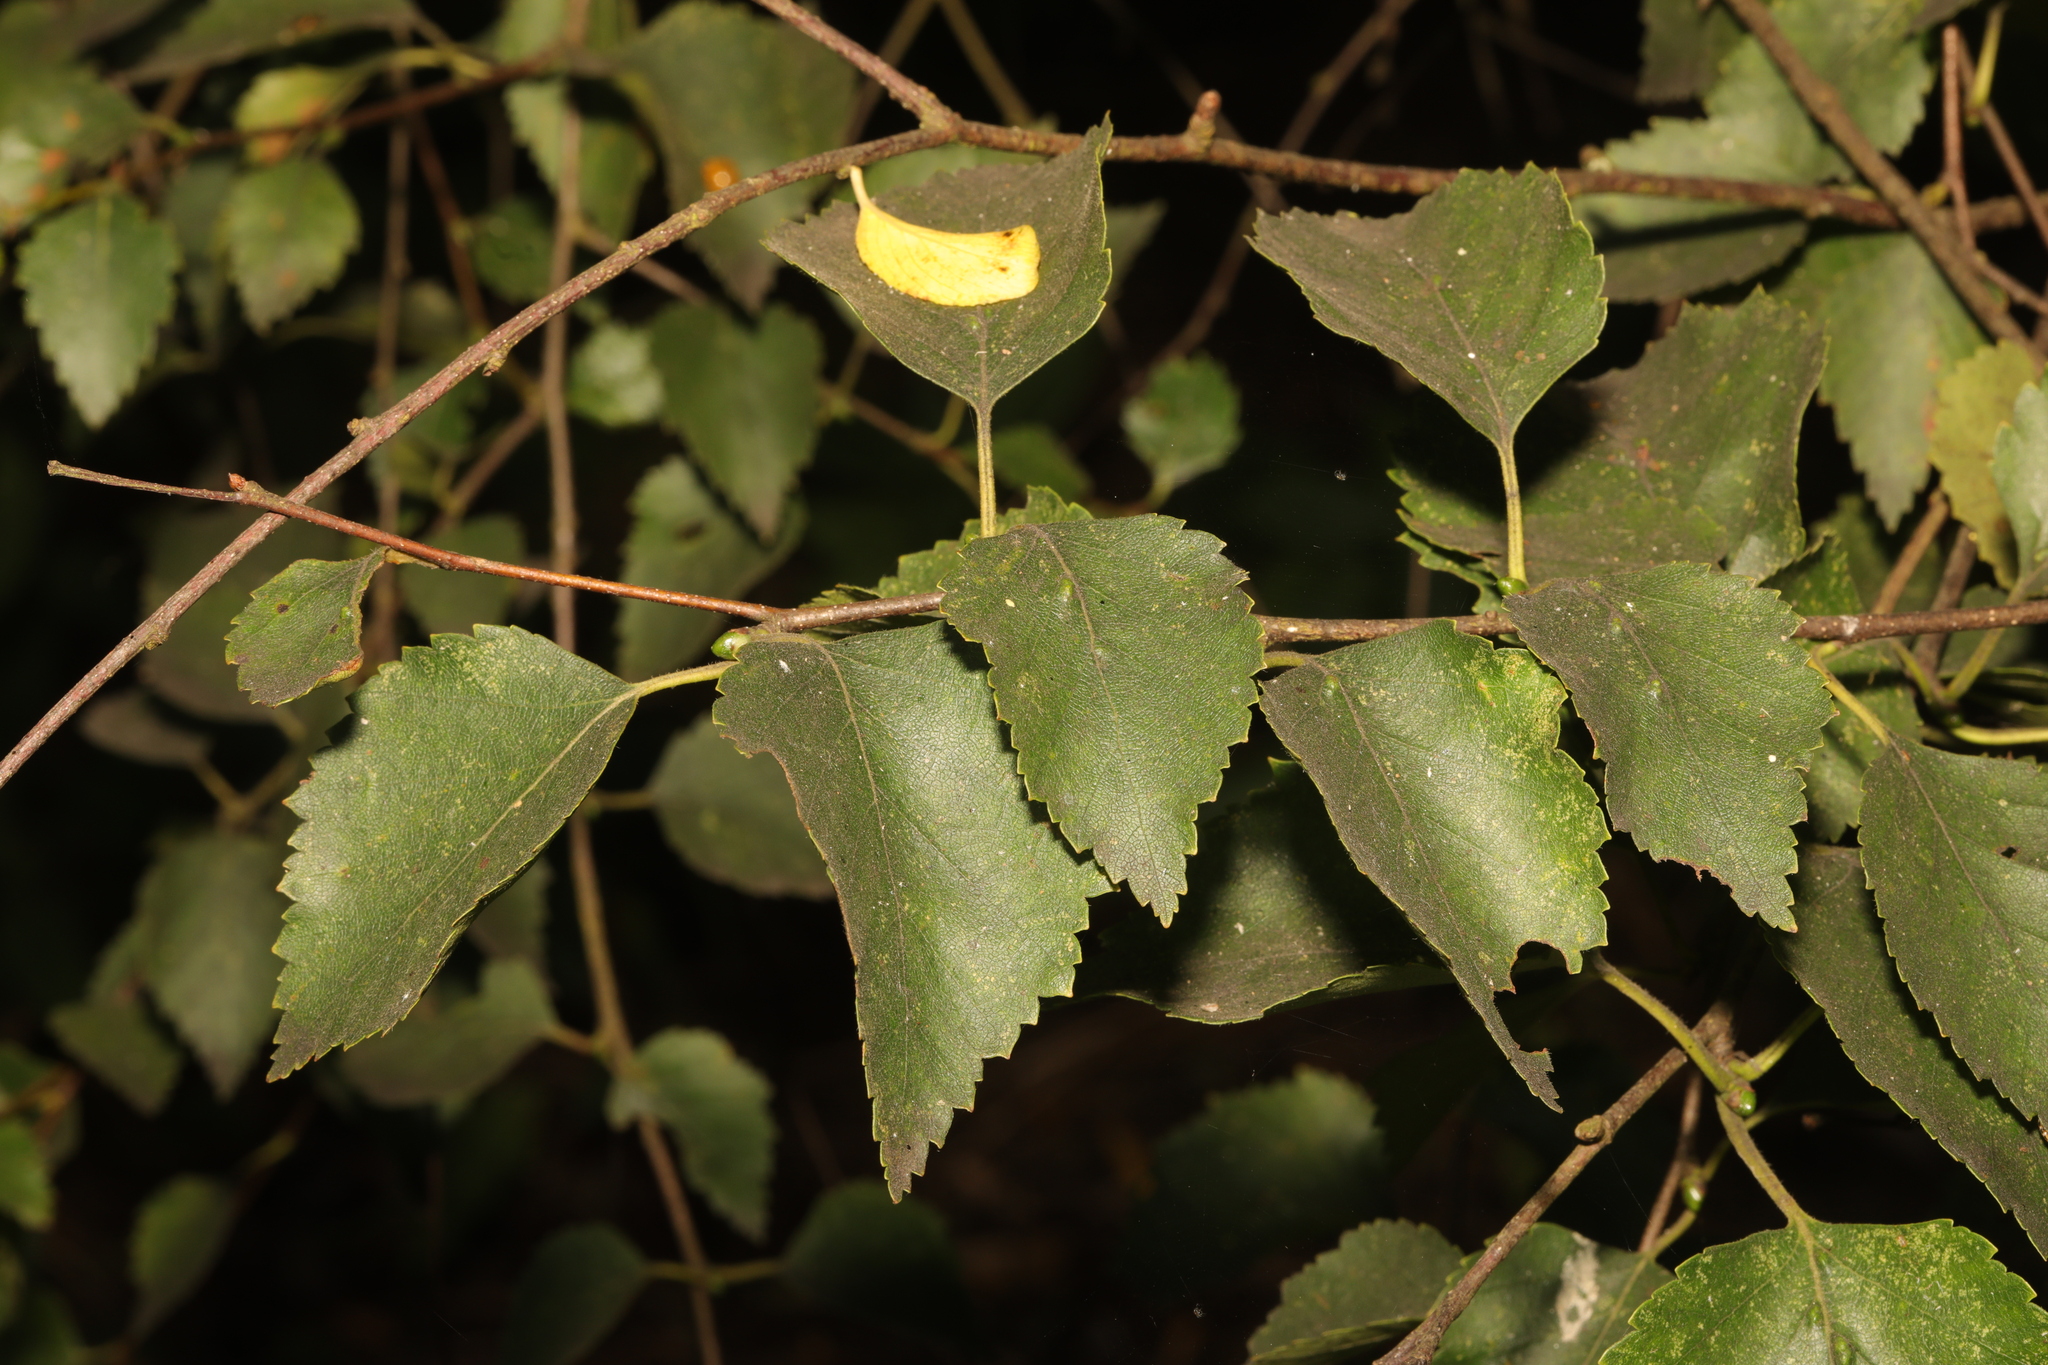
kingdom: Plantae
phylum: Tracheophyta
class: Magnoliopsida
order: Fagales
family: Betulaceae
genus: Betula
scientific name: Betula pendula
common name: Silver birch
